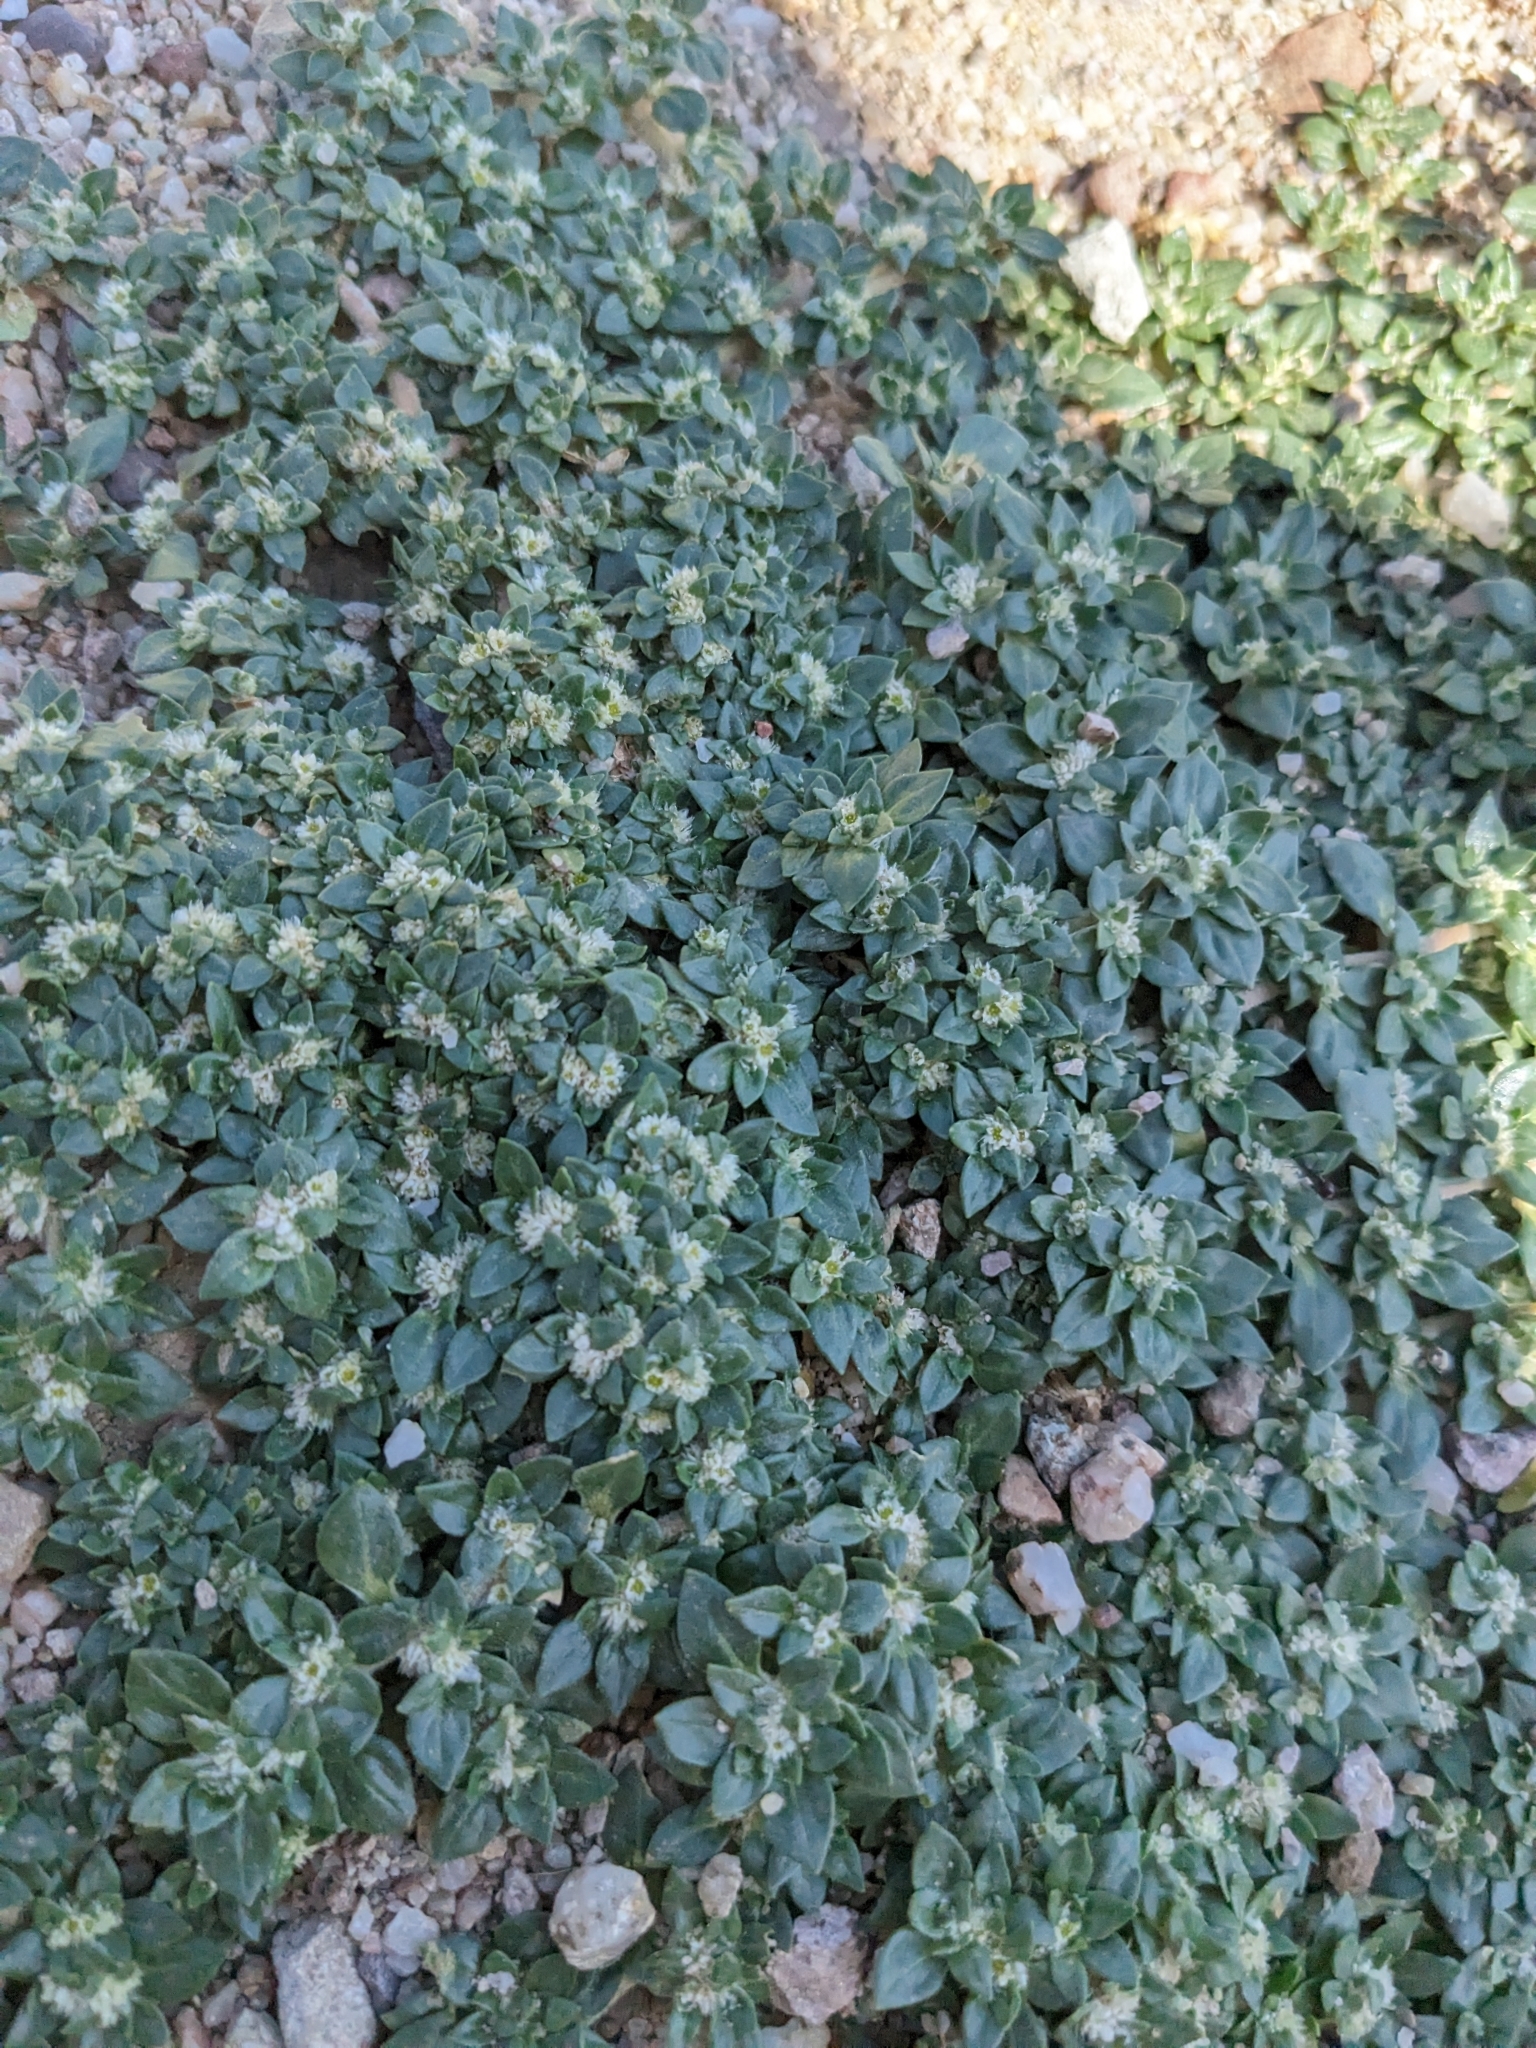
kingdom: Plantae
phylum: Tracheophyta
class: Magnoliopsida
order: Caryophyllales
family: Amaranthaceae
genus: Guilleminea
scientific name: Guilleminea densa
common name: Small matweed
